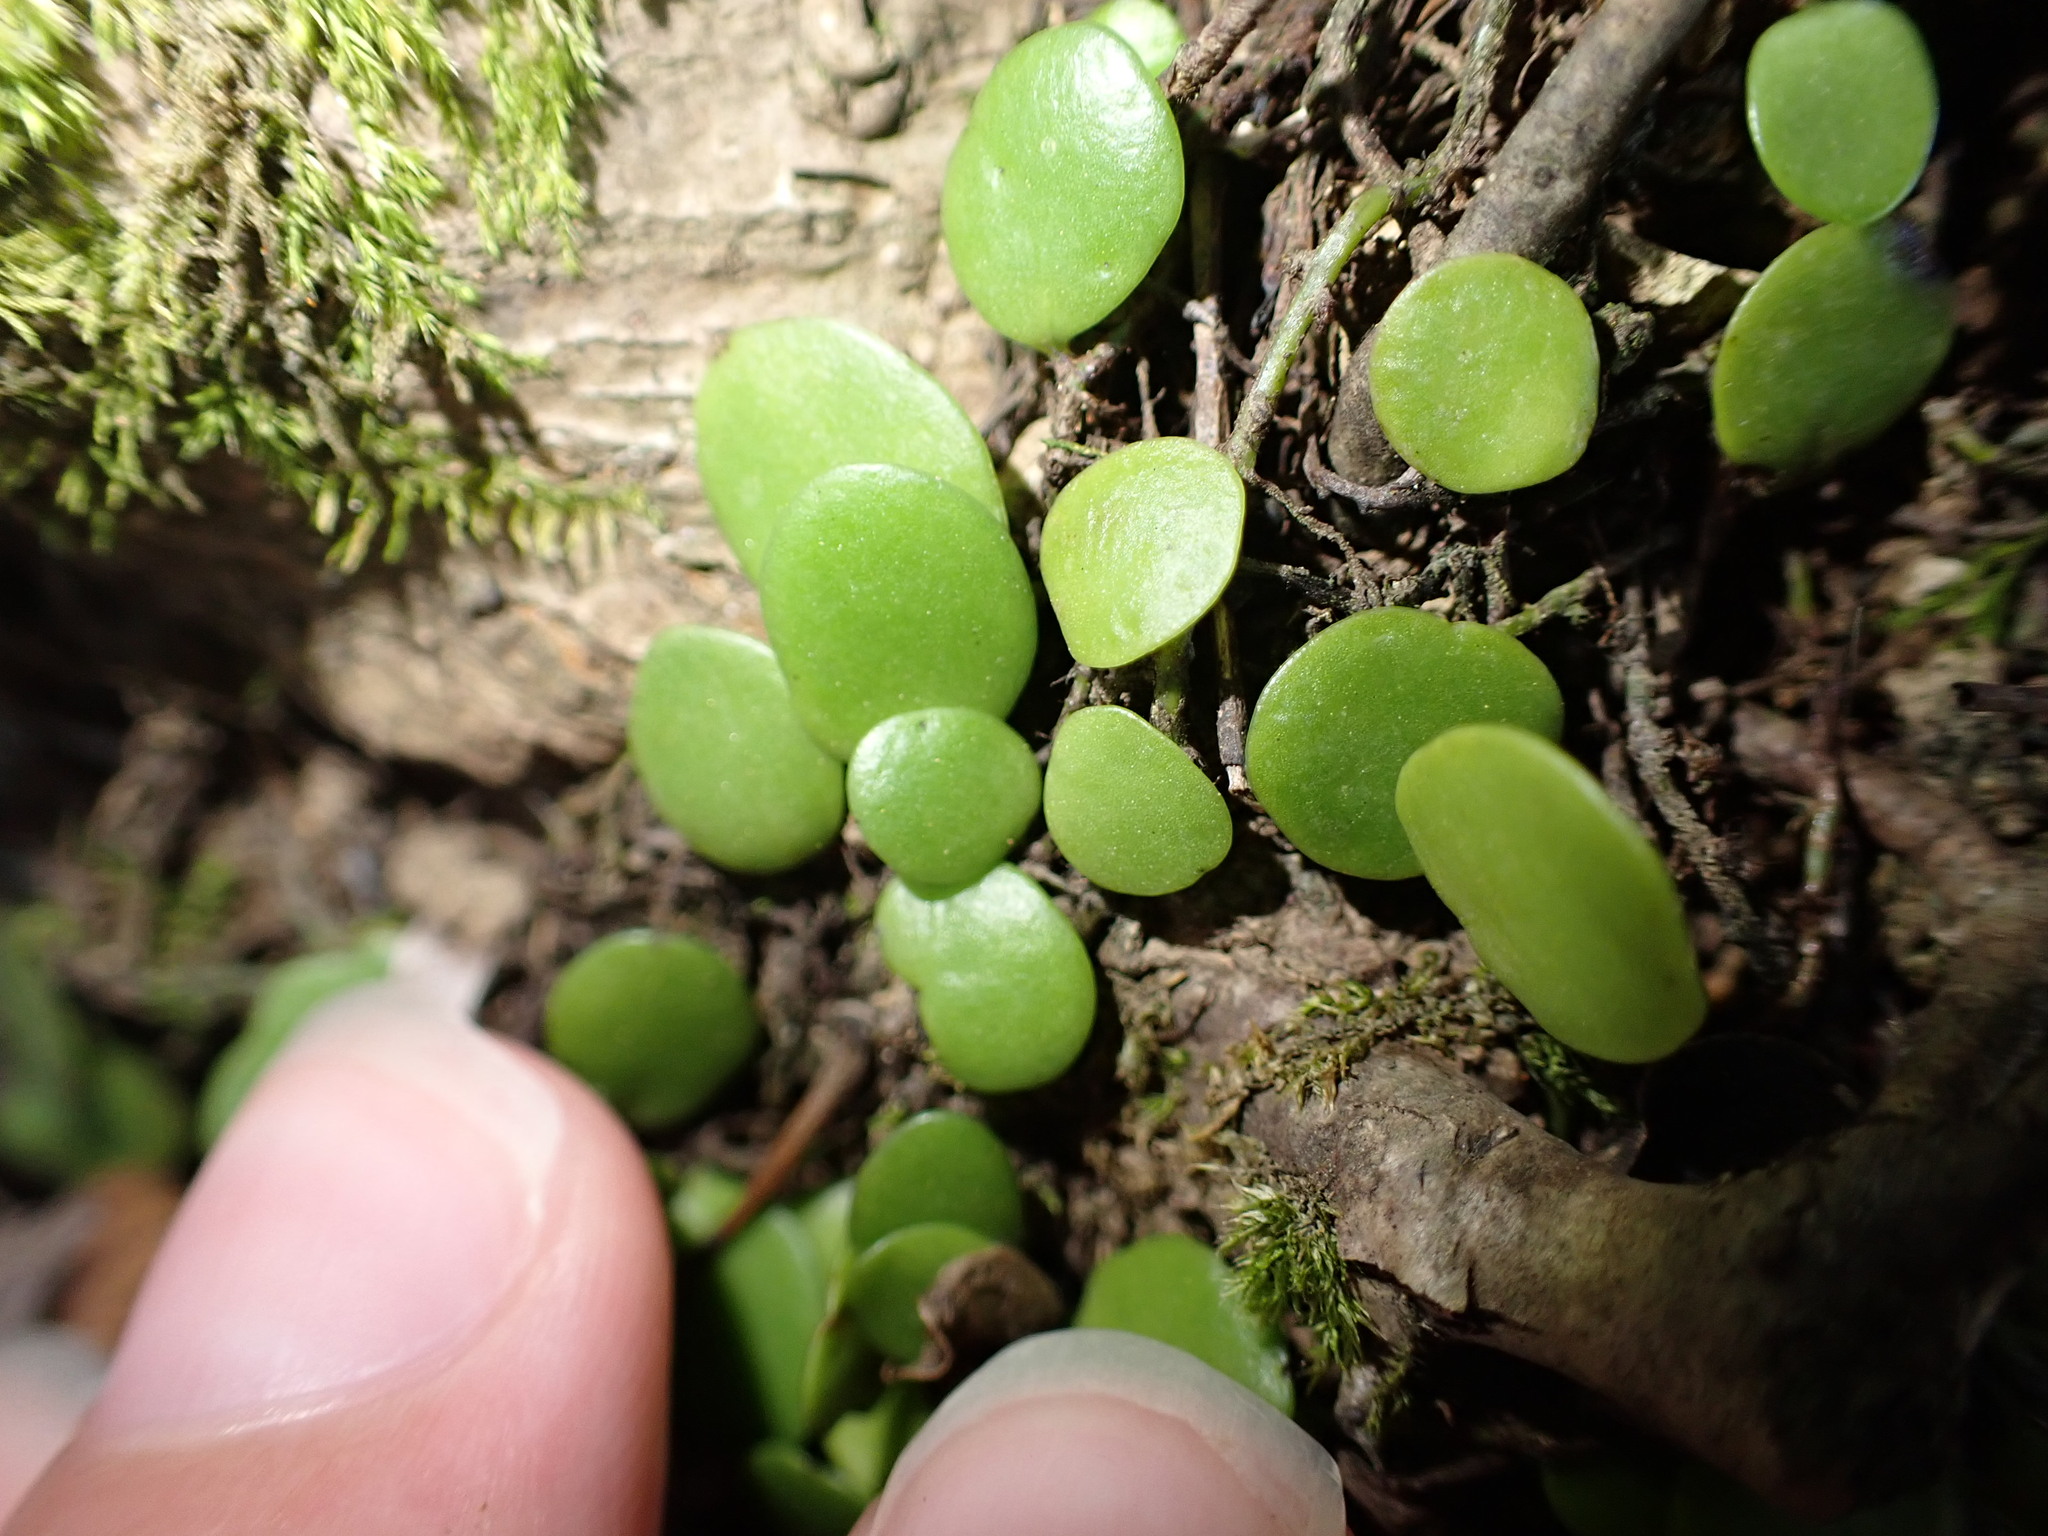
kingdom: Plantae
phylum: Tracheophyta
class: Polypodiopsida
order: Polypodiales
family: Polypodiaceae
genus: Lepisorus
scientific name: Lepisorus microphyllus
